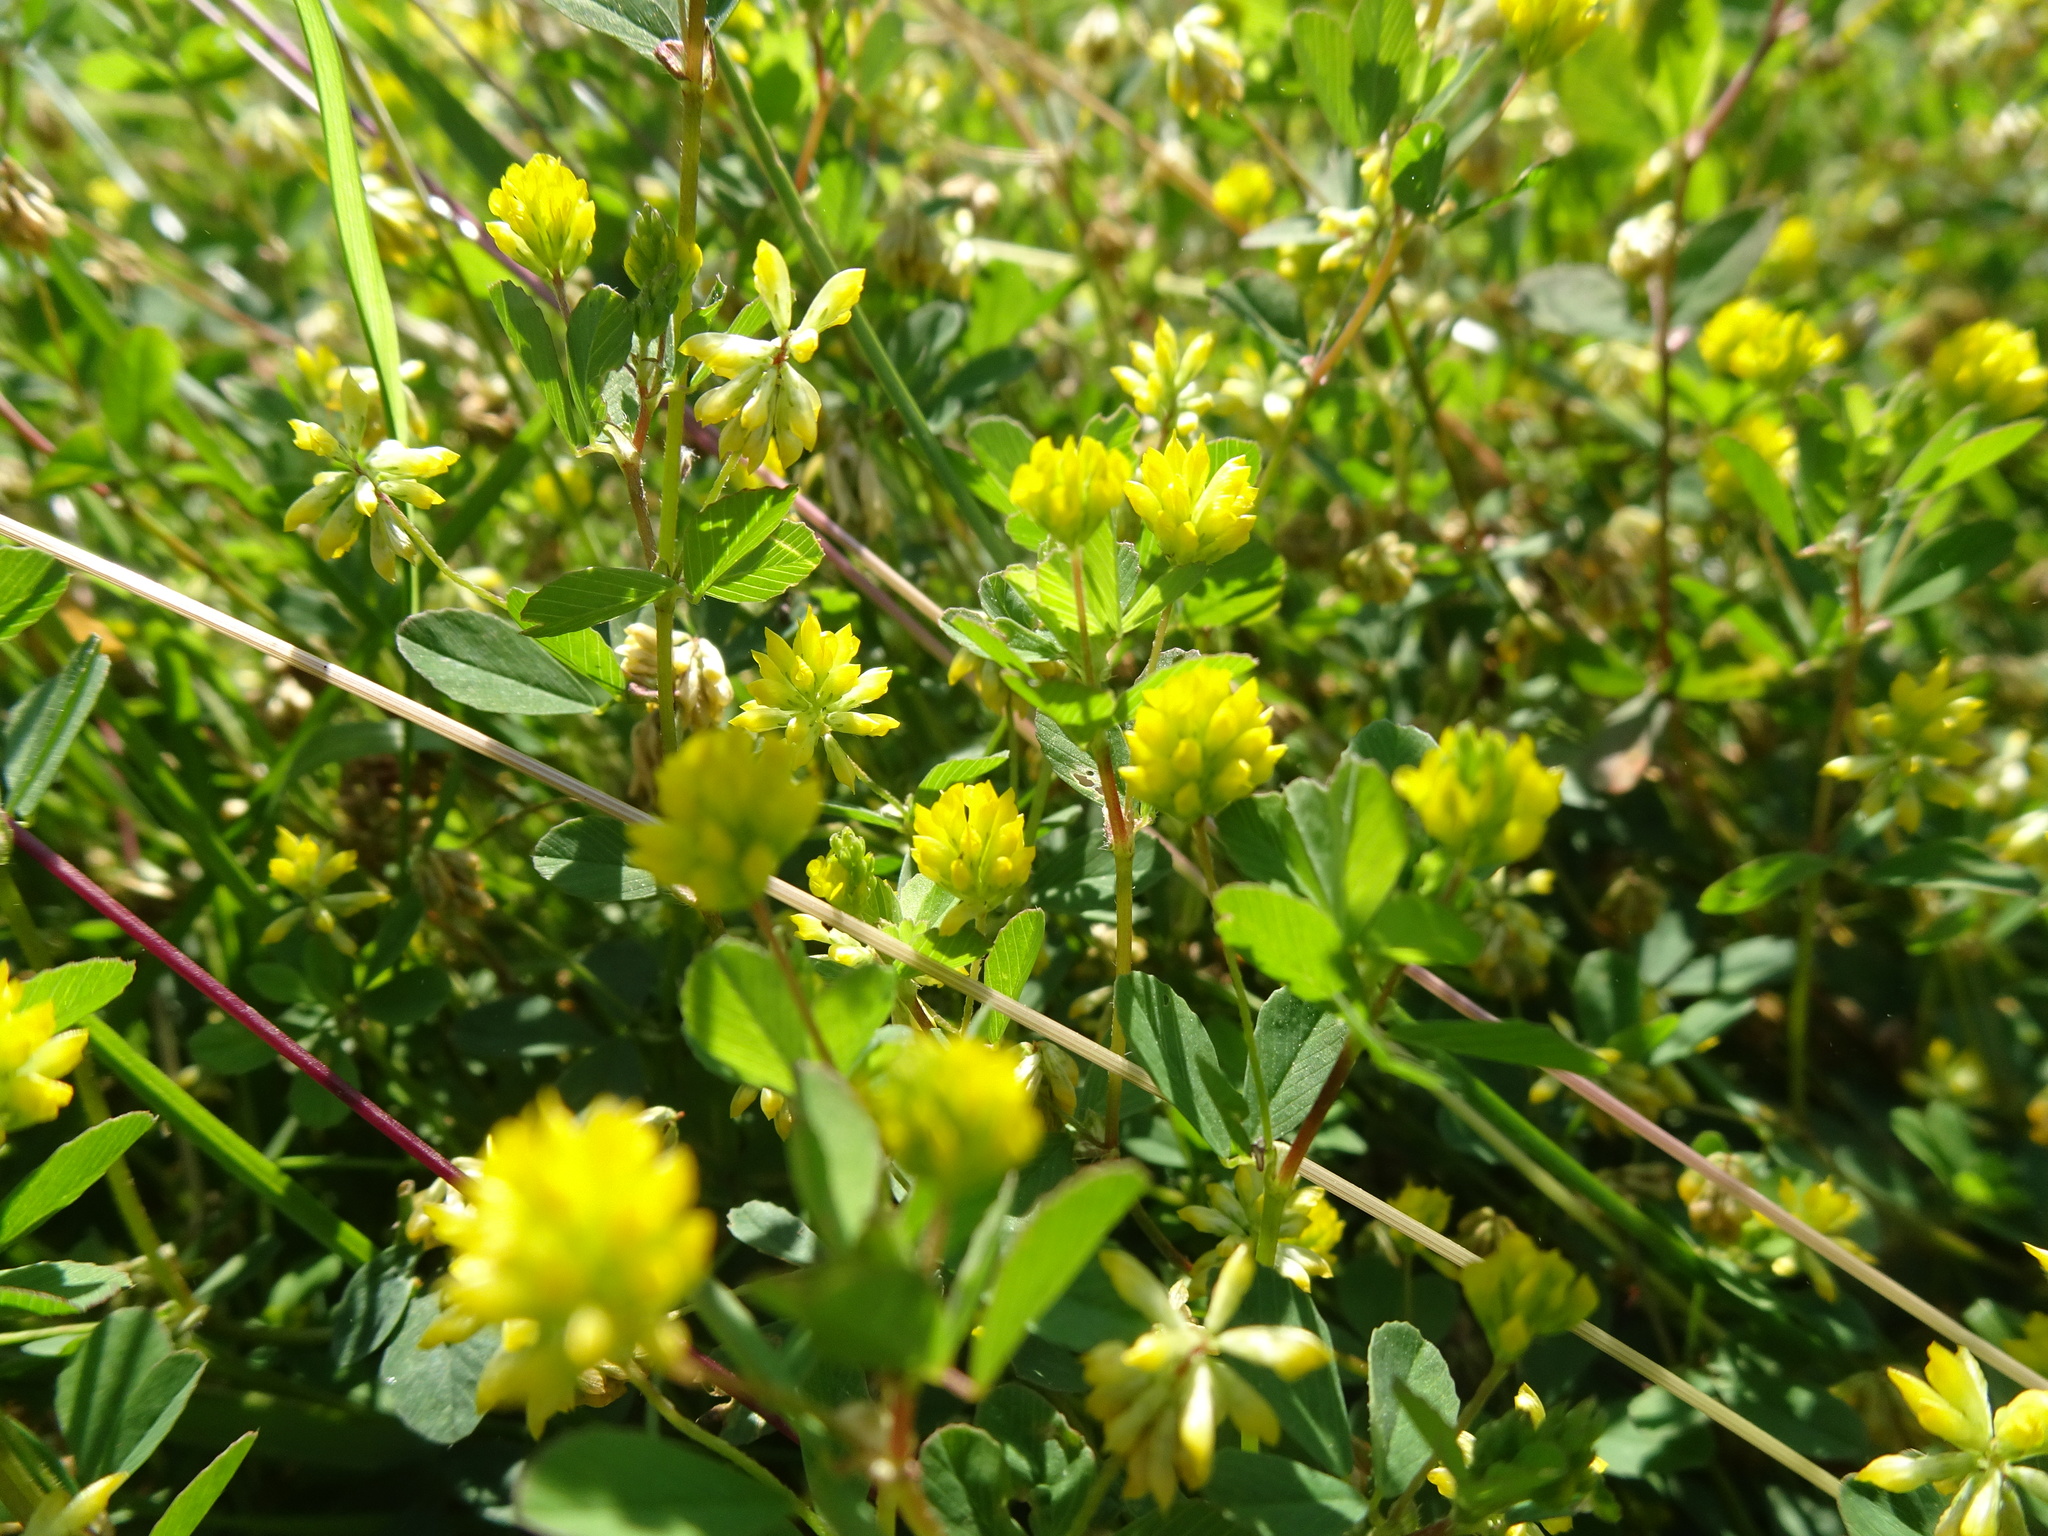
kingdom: Plantae
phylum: Tracheophyta
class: Magnoliopsida
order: Fabales
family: Fabaceae
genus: Trifolium
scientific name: Trifolium dubium
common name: Suckling clover
